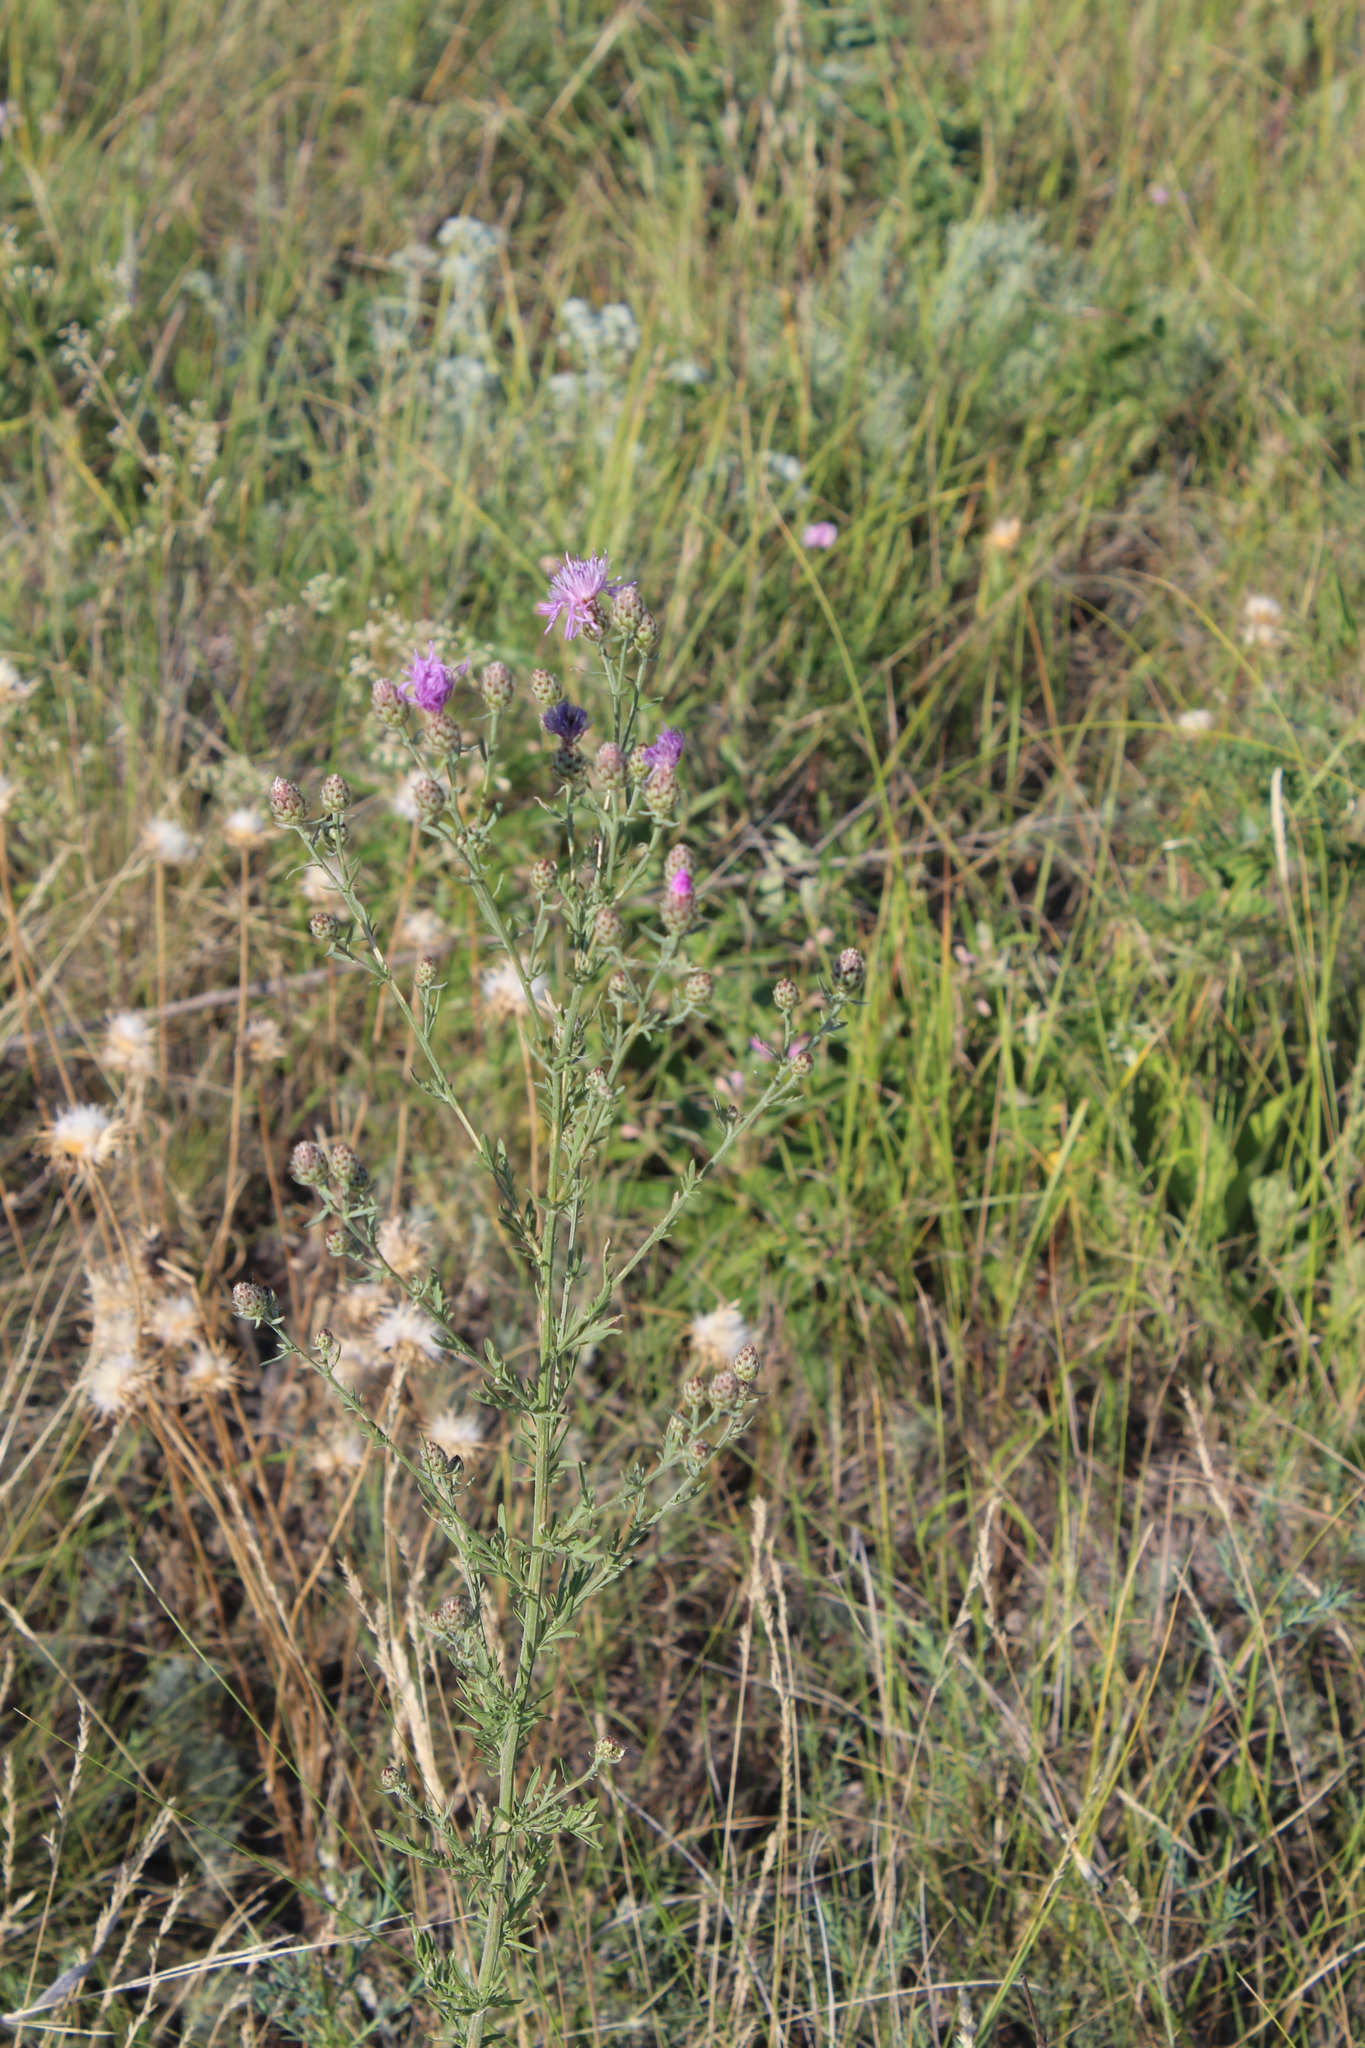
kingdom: Plantae
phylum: Tracheophyta
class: Magnoliopsida
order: Asterales
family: Asteraceae
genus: Centaurea
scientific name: Centaurea stoebe
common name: Spotted knapweed
